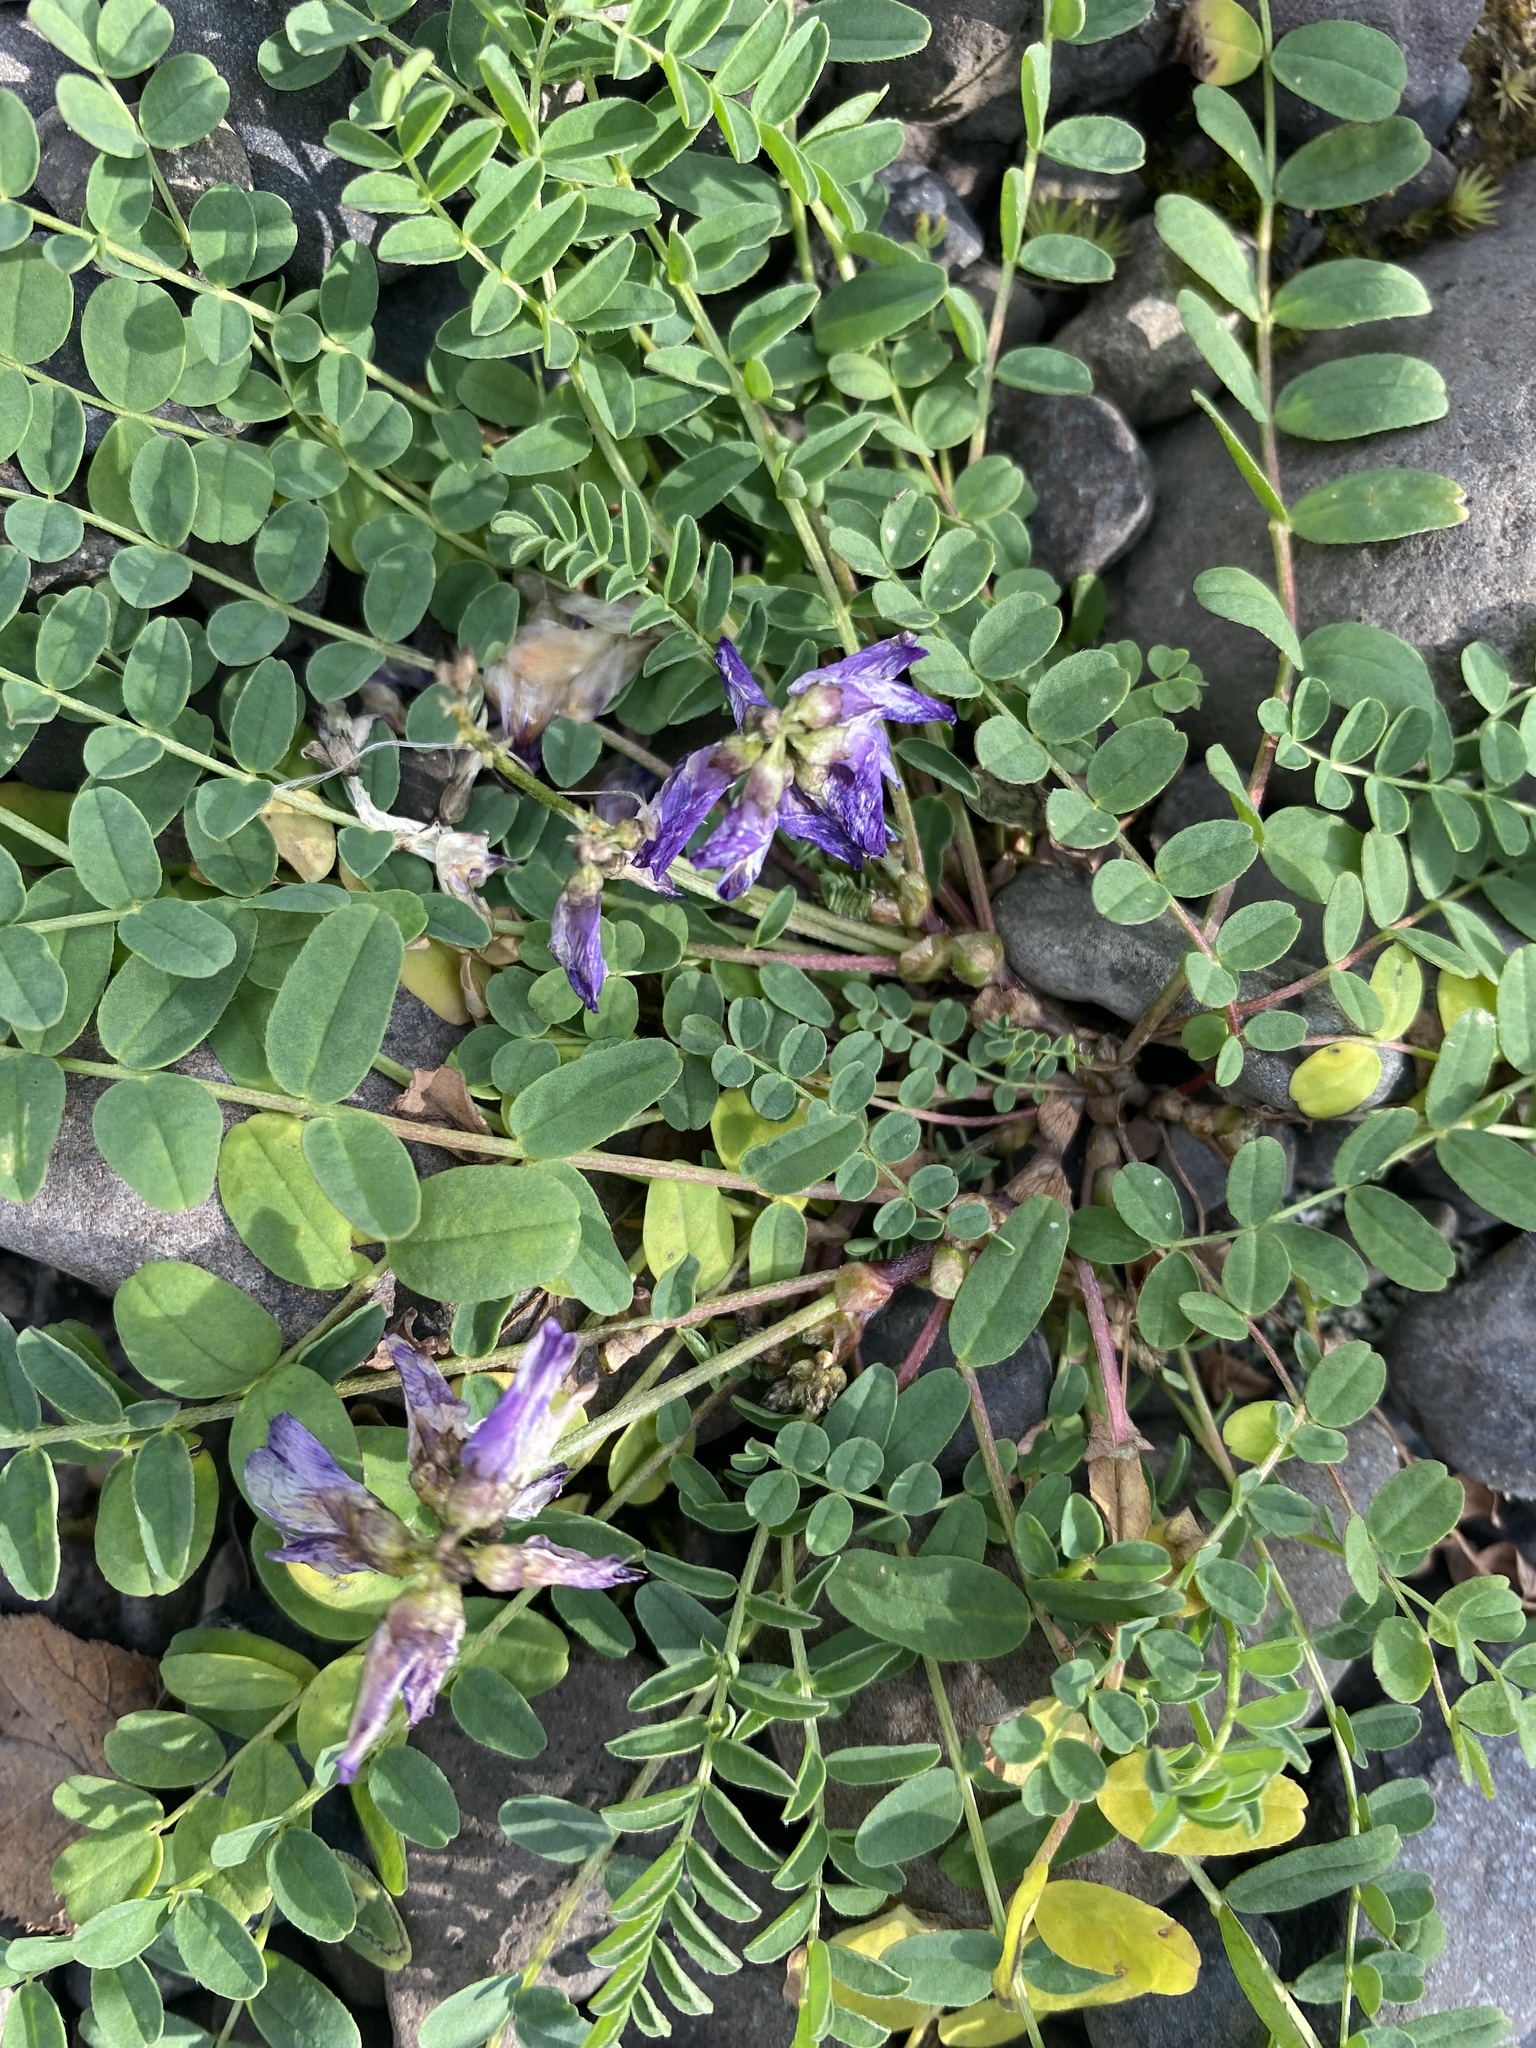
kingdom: Plantae
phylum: Tracheophyta
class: Magnoliopsida
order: Fabales
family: Fabaceae
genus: Astragalus
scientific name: Astragalus alpinus
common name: Alpine milk-vetch
